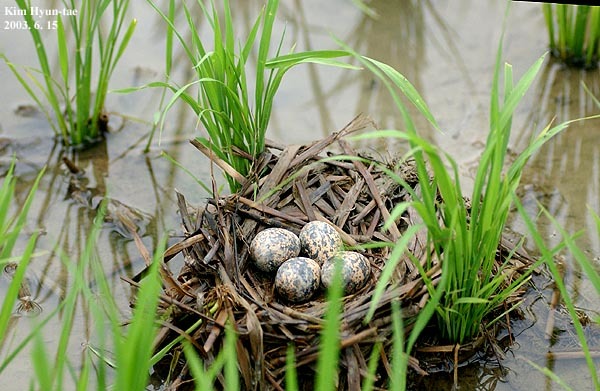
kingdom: Animalia
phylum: Chordata
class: Aves
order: Charadriiformes
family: Rostratulidae
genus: Rostratula
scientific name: Rostratula benghalensis
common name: Greater painted-snipe
